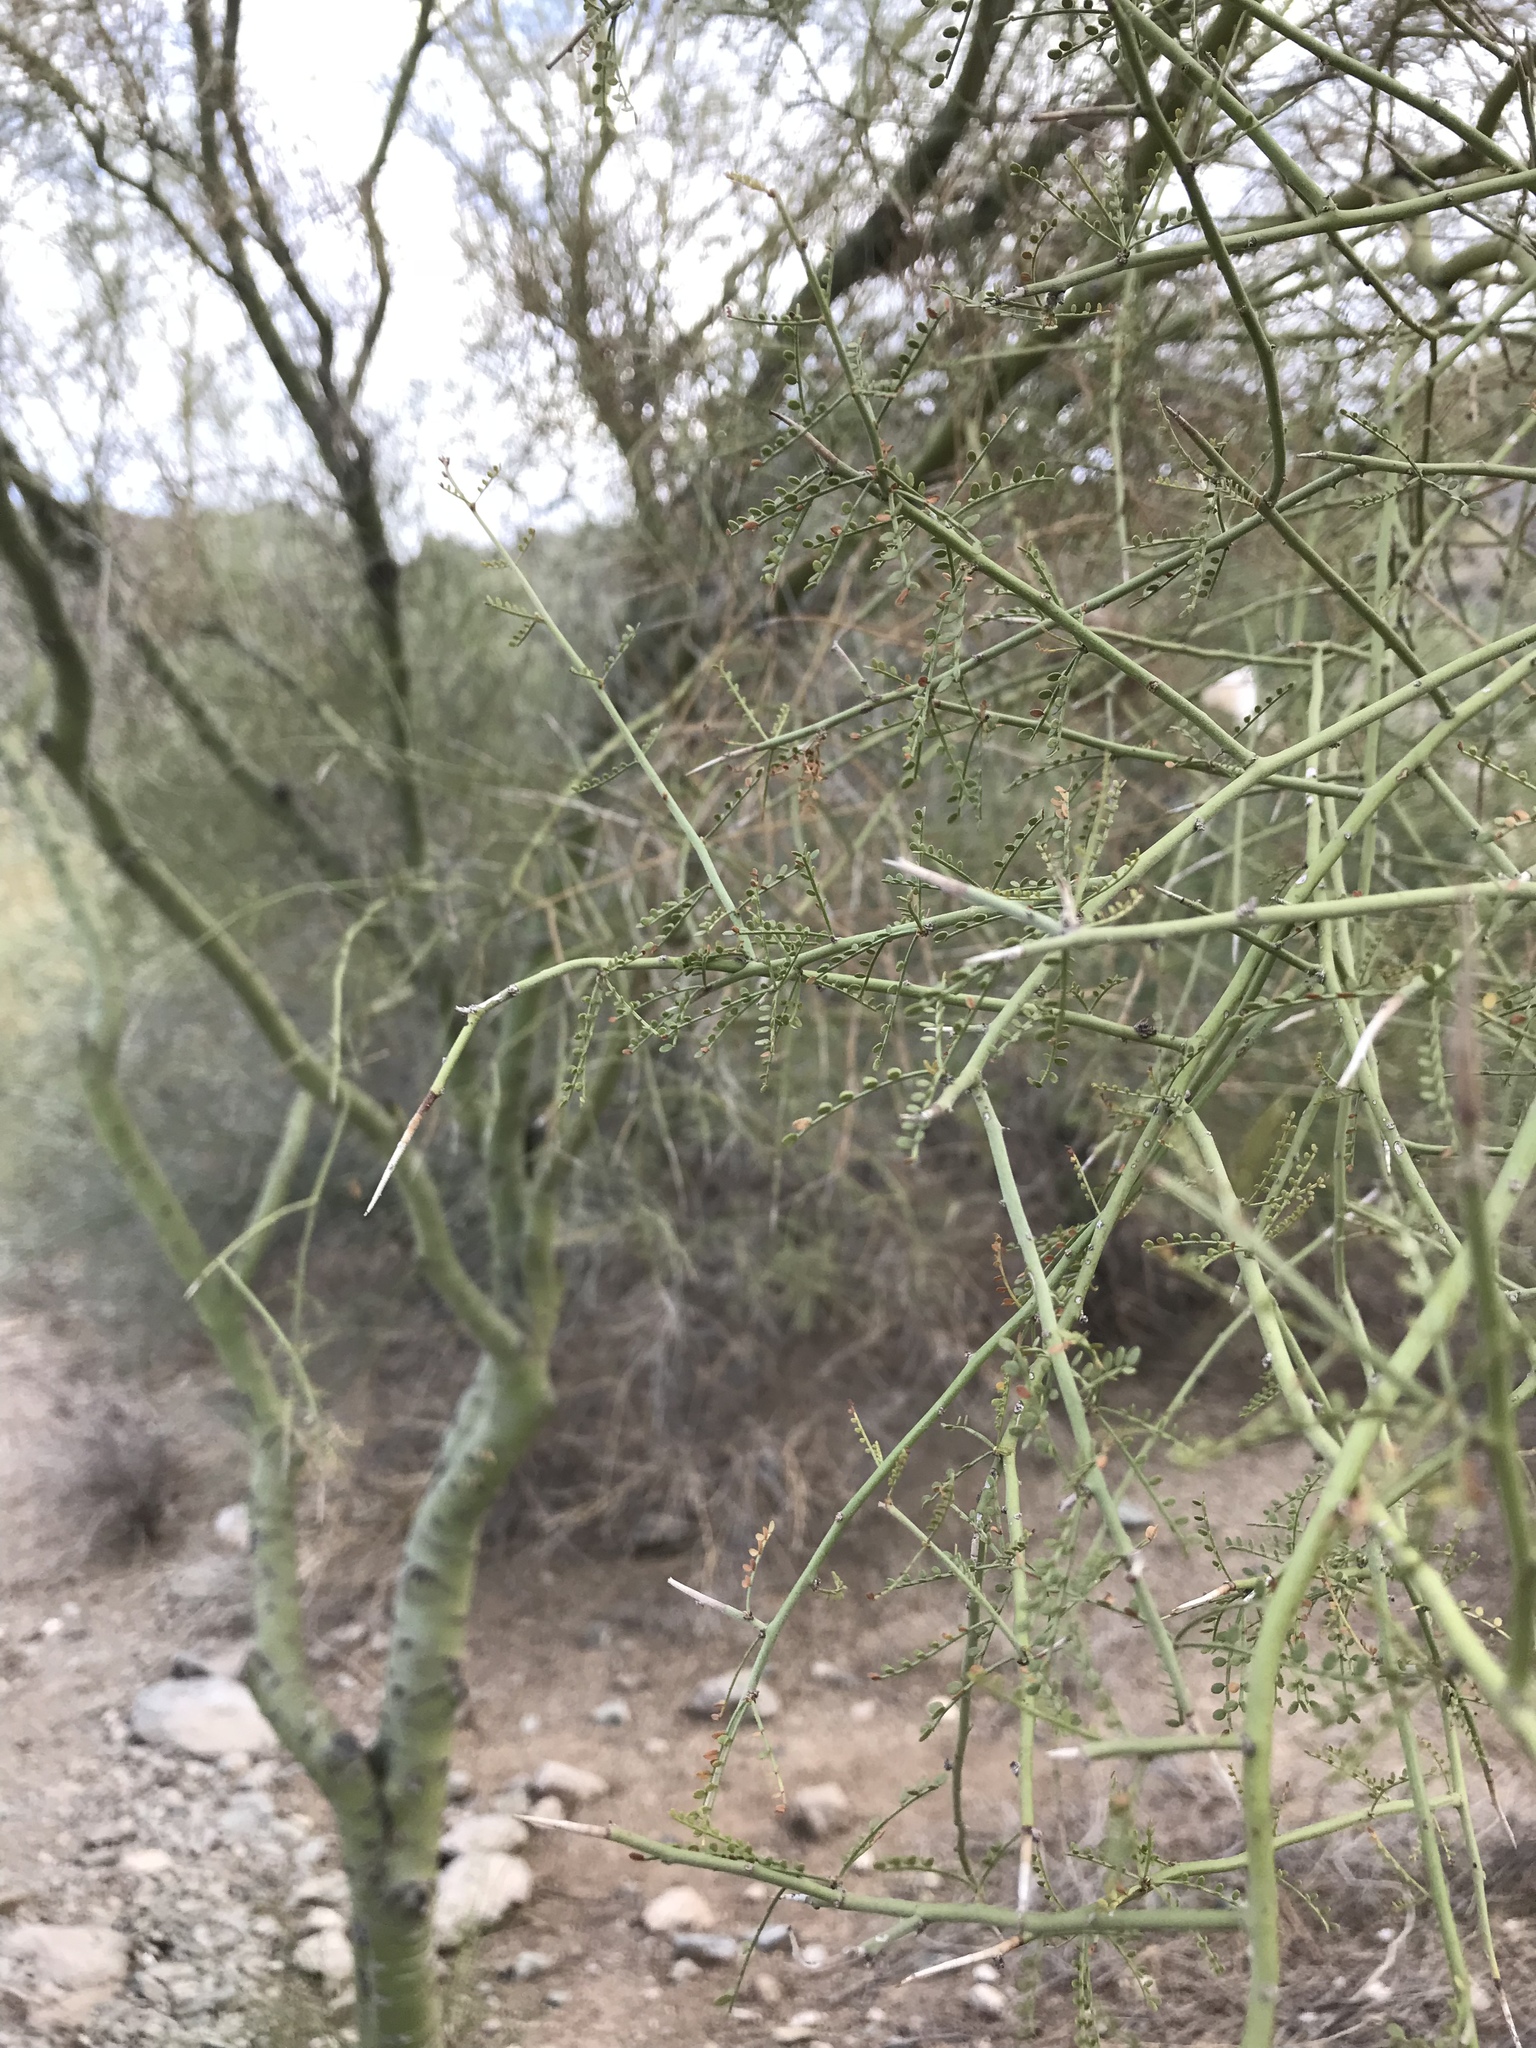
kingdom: Plantae
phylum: Tracheophyta
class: Magnoliopsida
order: Fabales
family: Fabaceae
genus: Parkinsonia
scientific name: Parkinsonia microphylla
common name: Yellow paloverde
